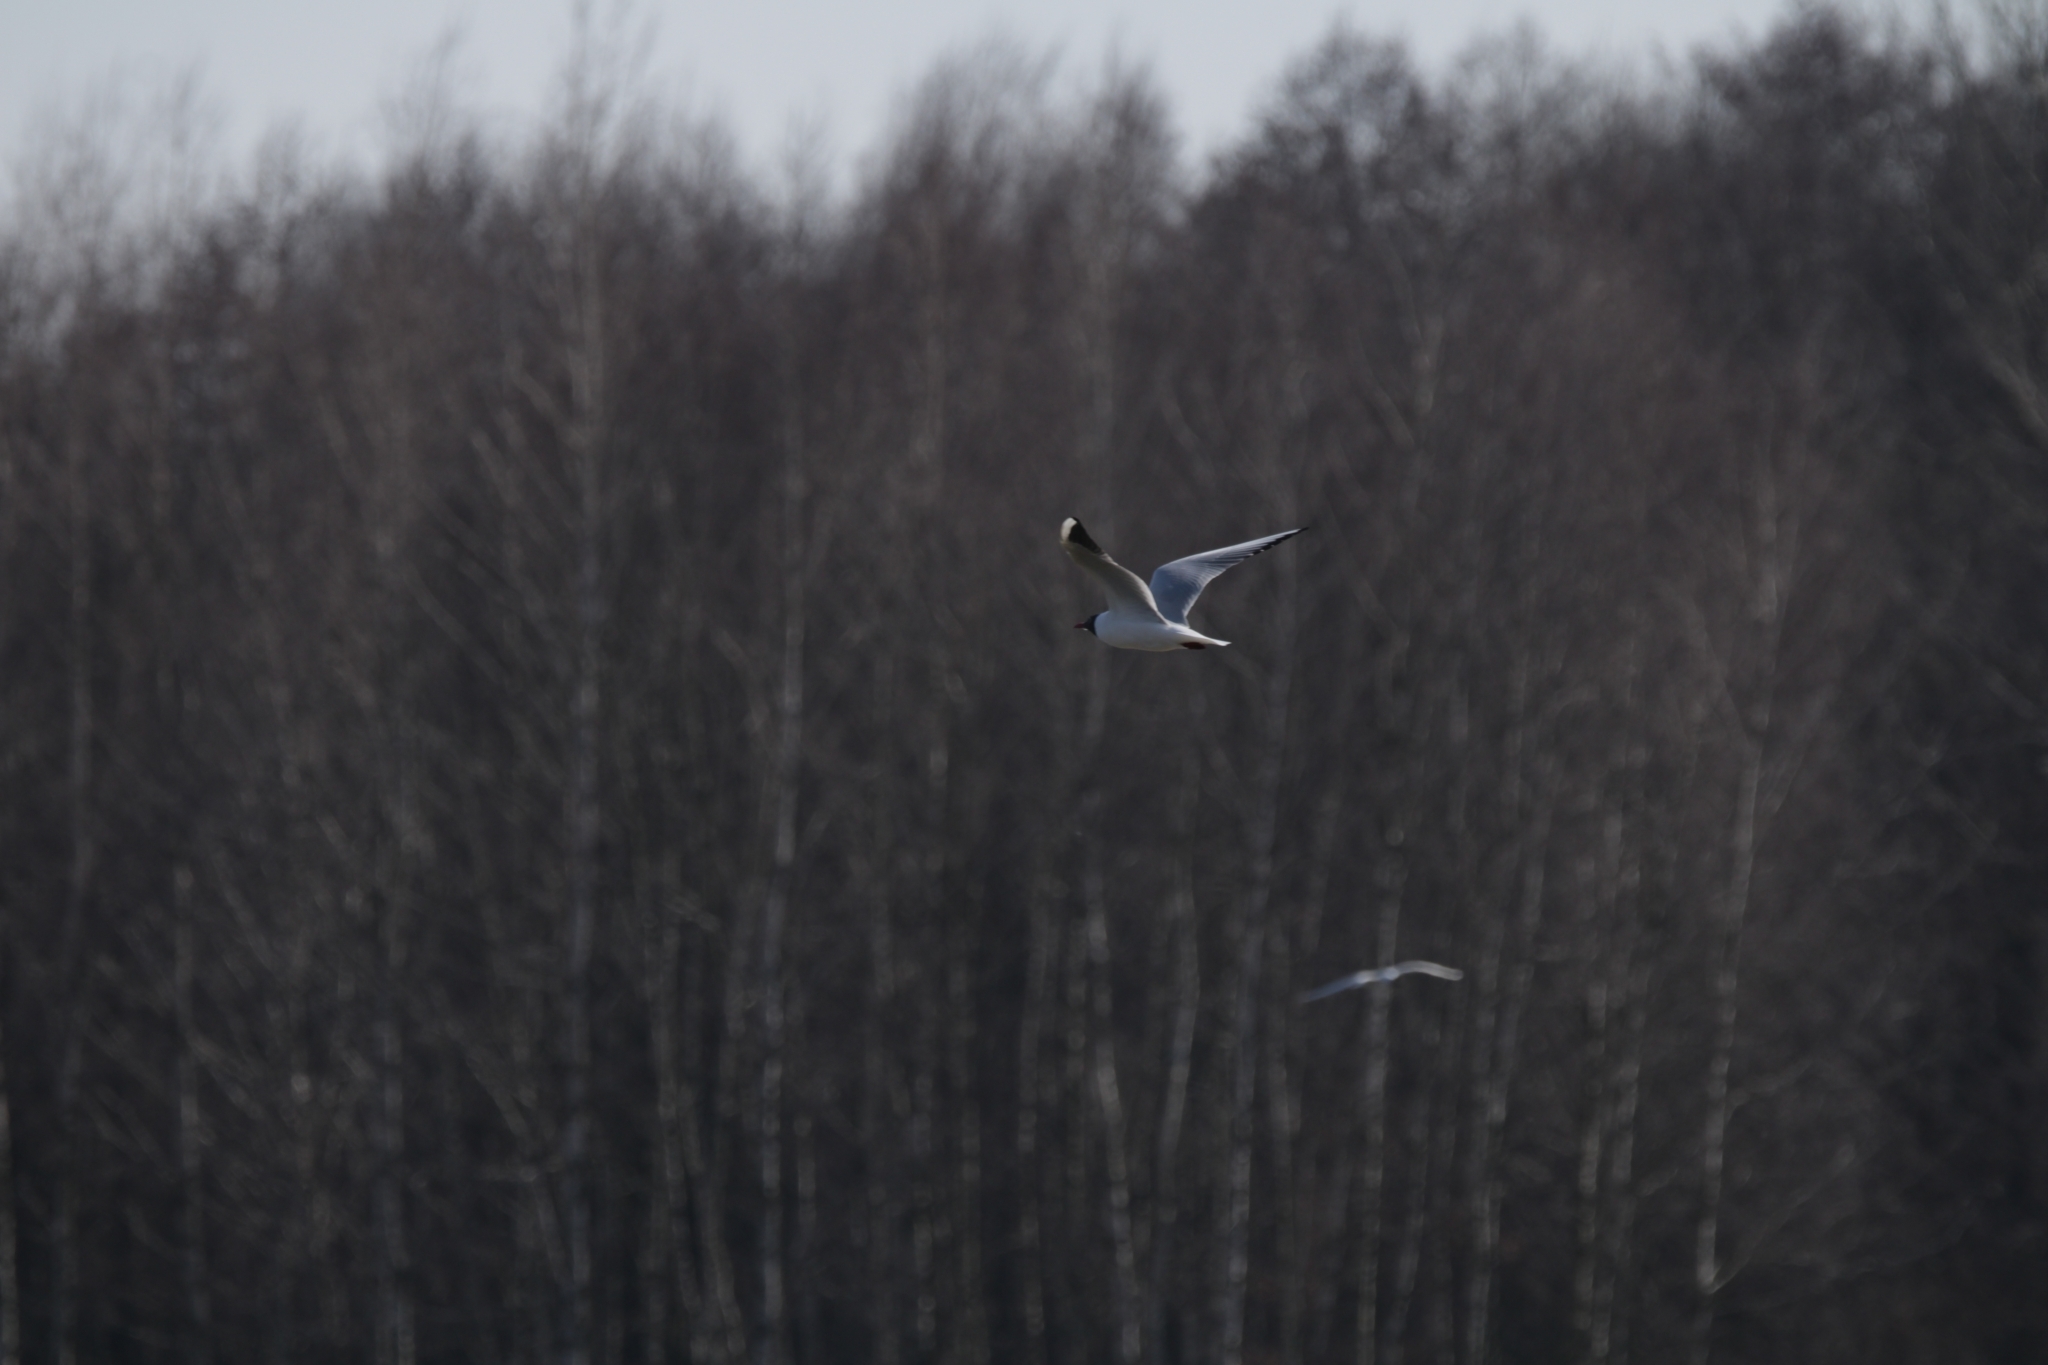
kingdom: Animalia
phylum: Chordata
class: Aves
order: Charadriiformes
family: Laridae
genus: Chroicocephalus
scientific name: Chroicocephalus ridibundus
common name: Black-headed gull
